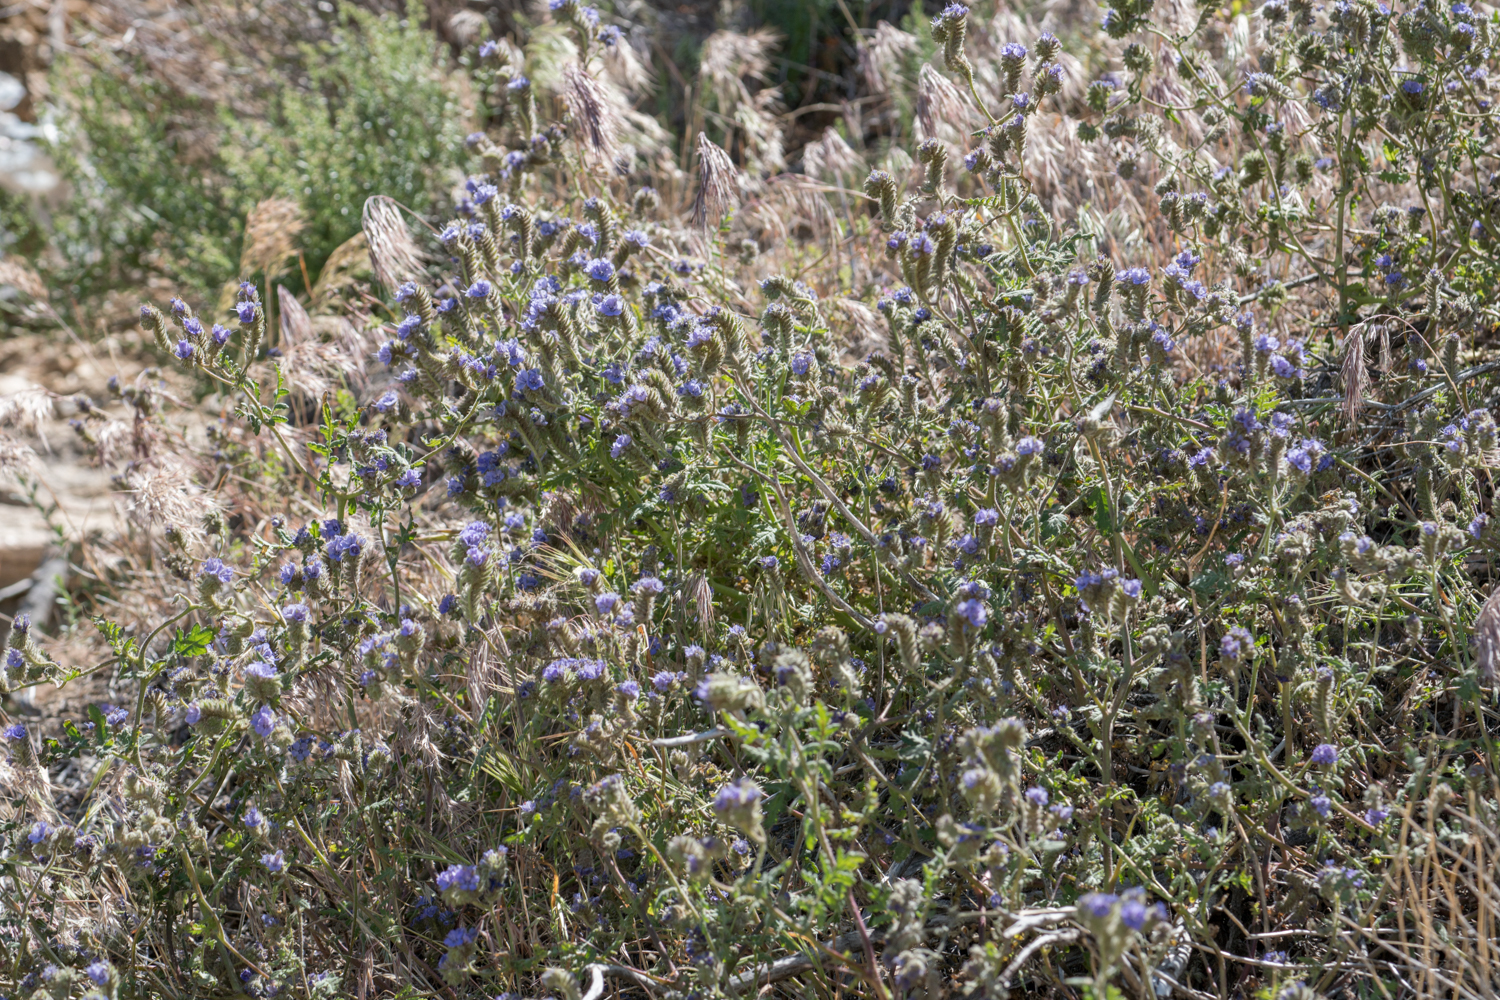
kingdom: Plantae
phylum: Tracheophyta
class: Magnoliopsida
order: Boraginales
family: Hydrophyllaceae
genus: Phacelia
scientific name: Phacelia distans
